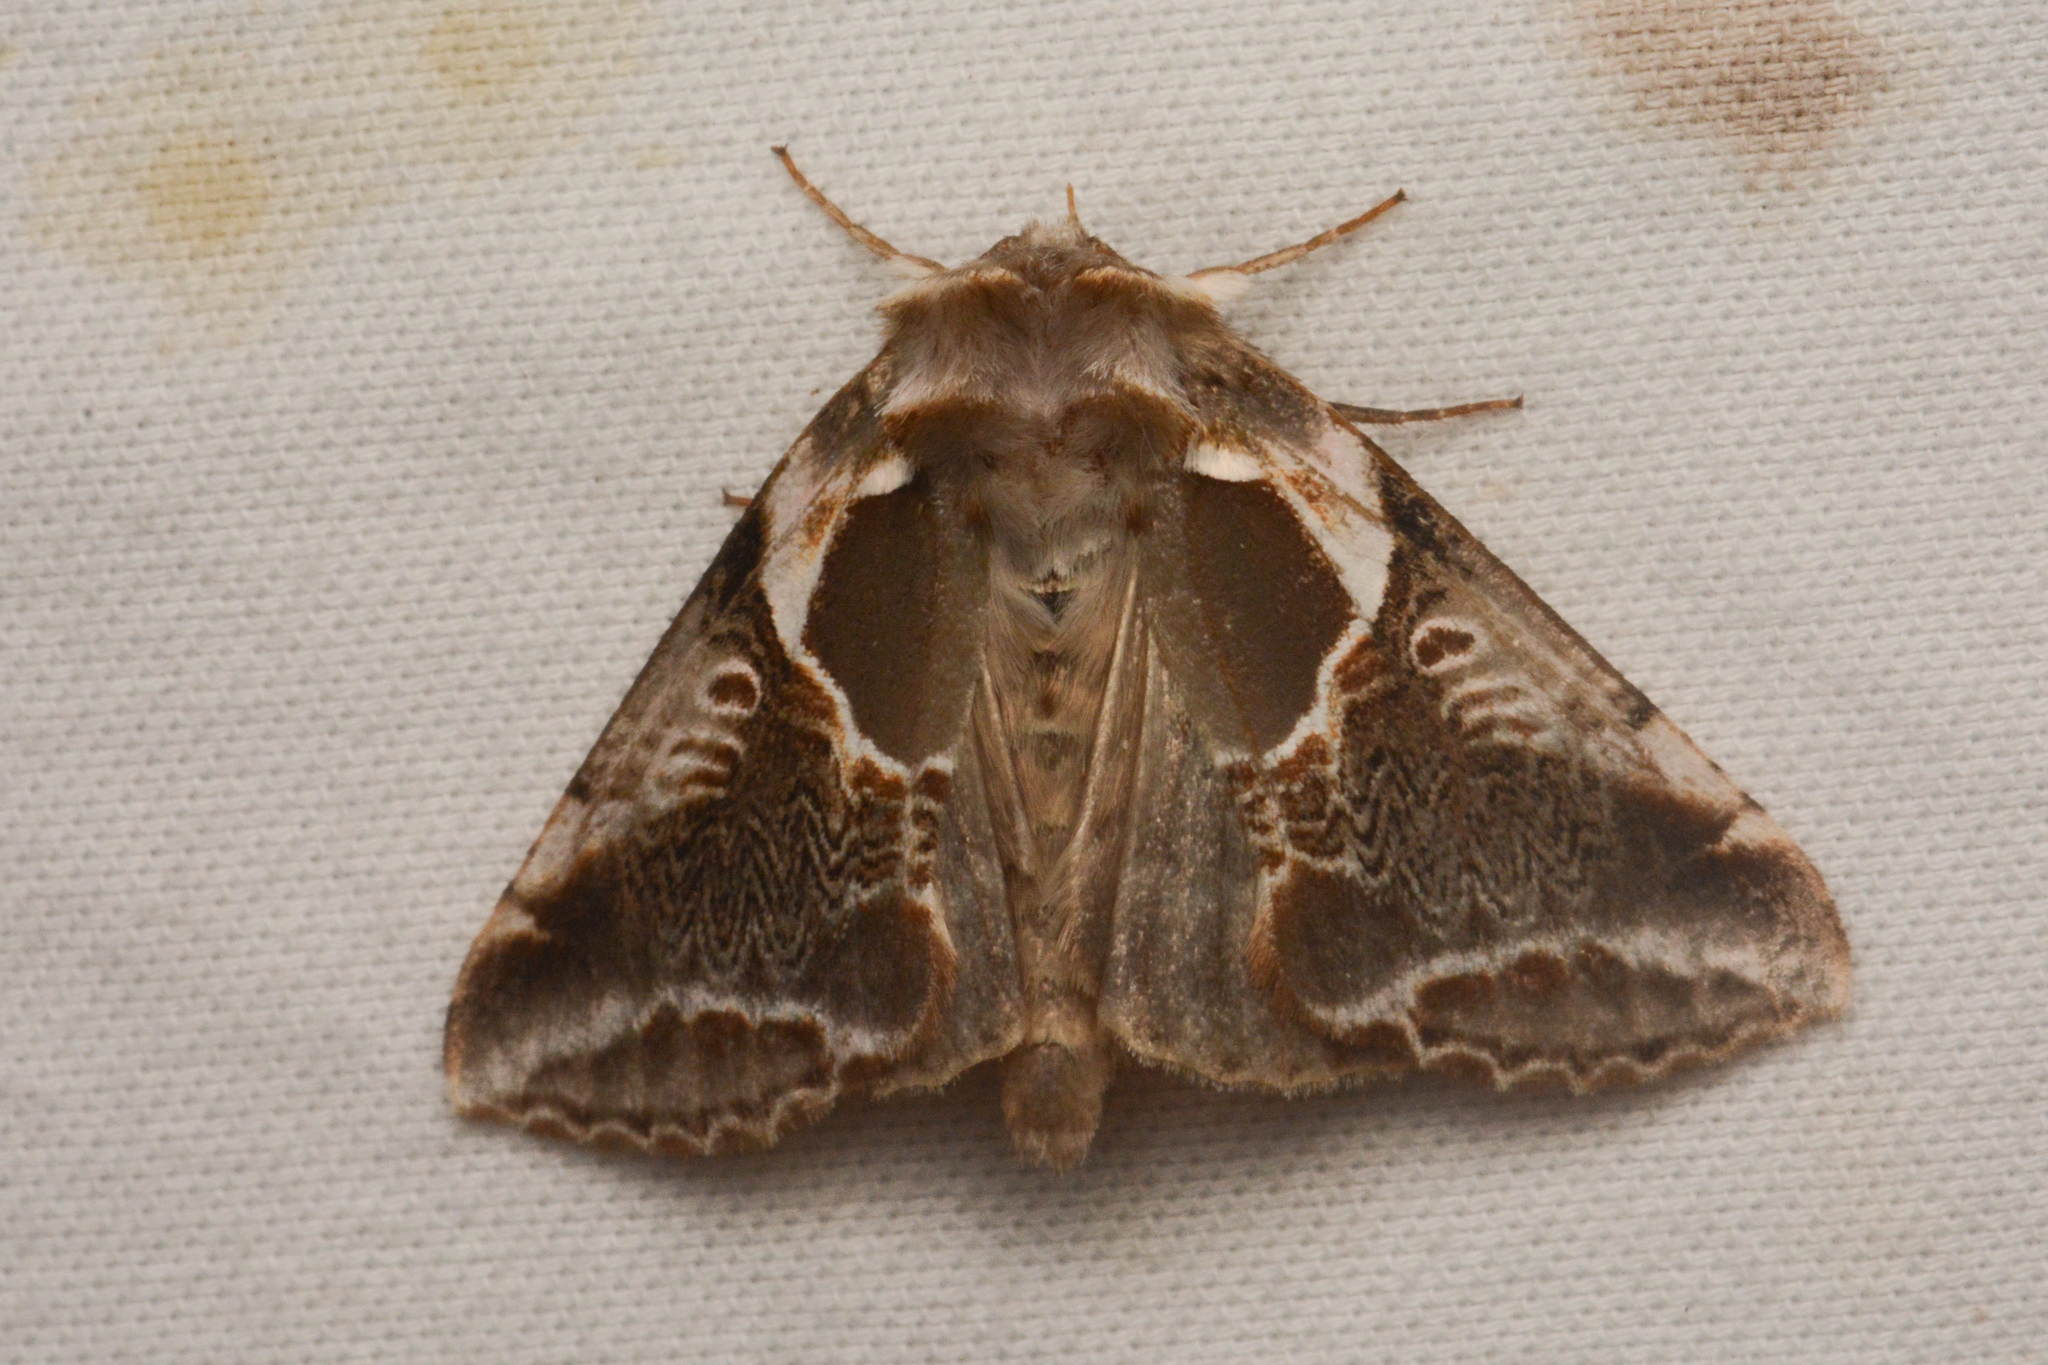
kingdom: Animalia
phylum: Arthropoda
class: Insecta
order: Lepidoptera
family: Drepanidae
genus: Habrosyne
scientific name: Habrosyne scripta
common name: Lettered habrosyne moth
